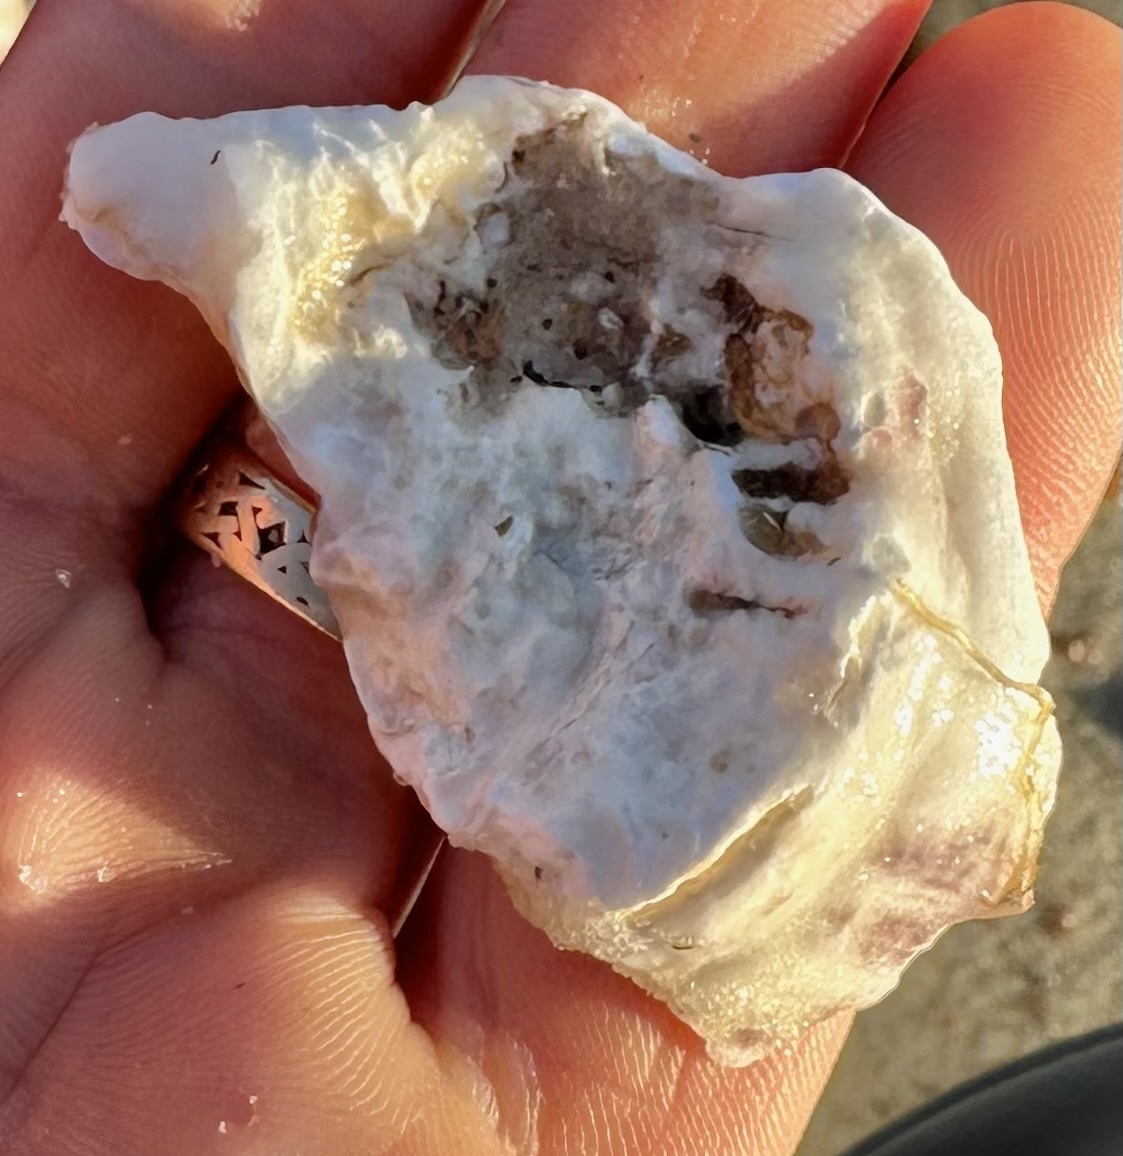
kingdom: Animalia
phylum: Mollusca
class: Bivalvia
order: Ostreida
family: Ostreidae
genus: Crassostrea
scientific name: Crassostrea virginica
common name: American oyster
